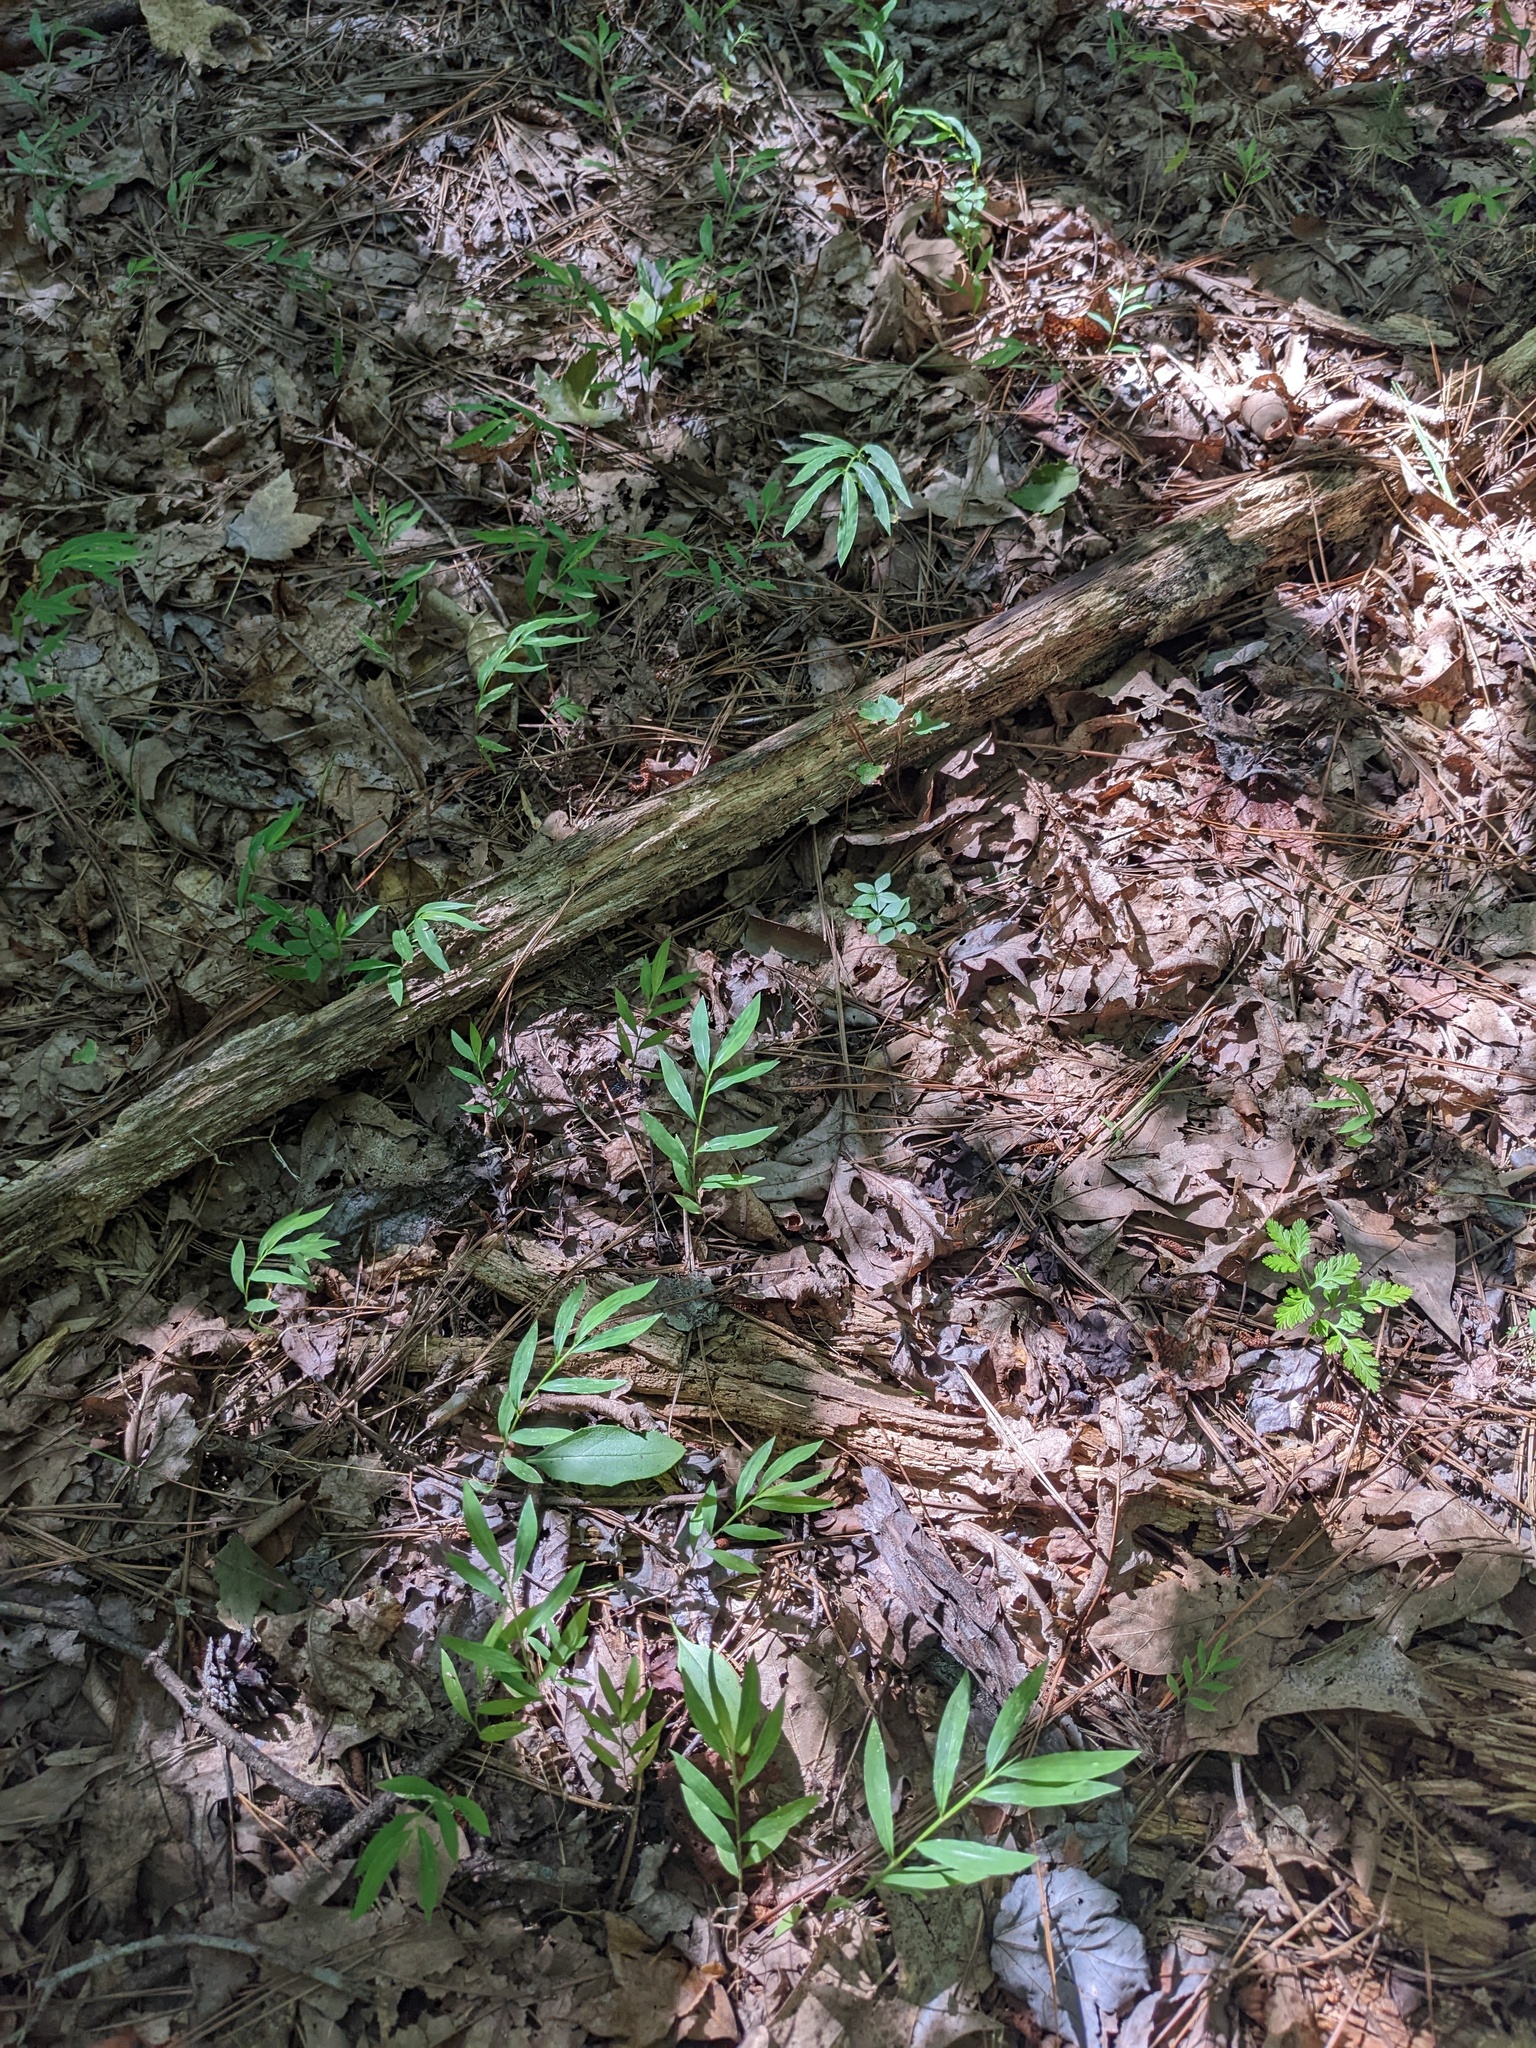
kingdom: Plantae
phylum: Tracheophyta
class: Liliopsida
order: Poales
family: Poaceae
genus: Microstegium
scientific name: Microstegium vimineum
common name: Japanese stiltgrass
